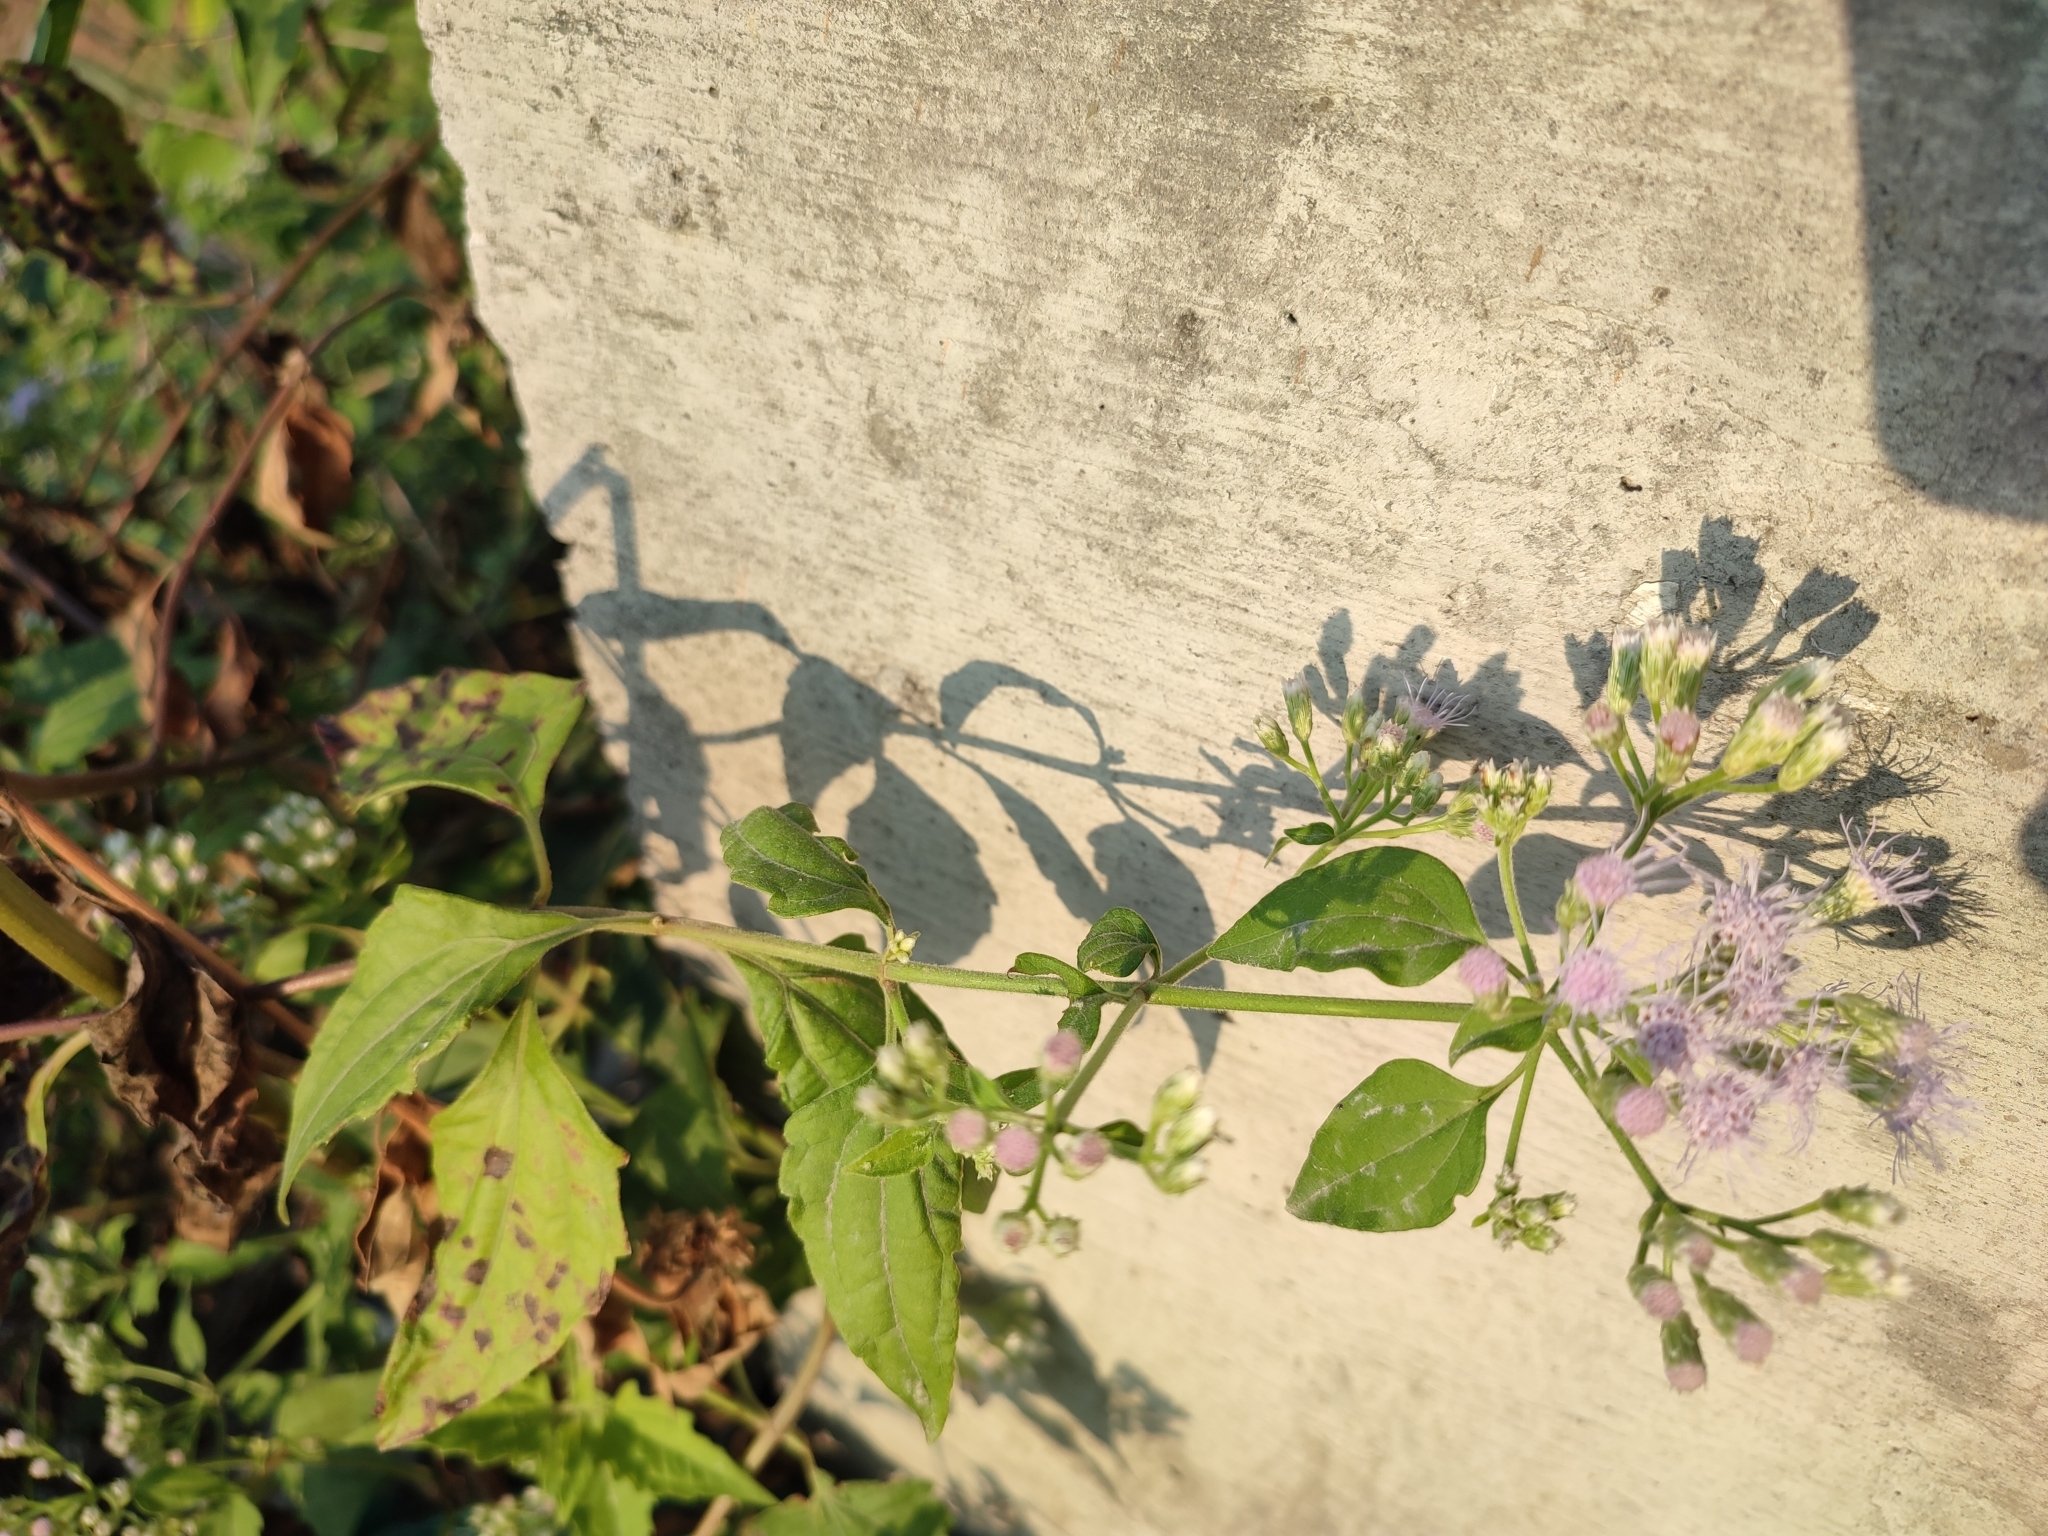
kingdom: Plantae
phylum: Tracheophyta
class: Magnoliopsida
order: Asterales
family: Asteraceae
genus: Chromolaena
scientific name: Chromolaena odorata
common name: Siamweed
